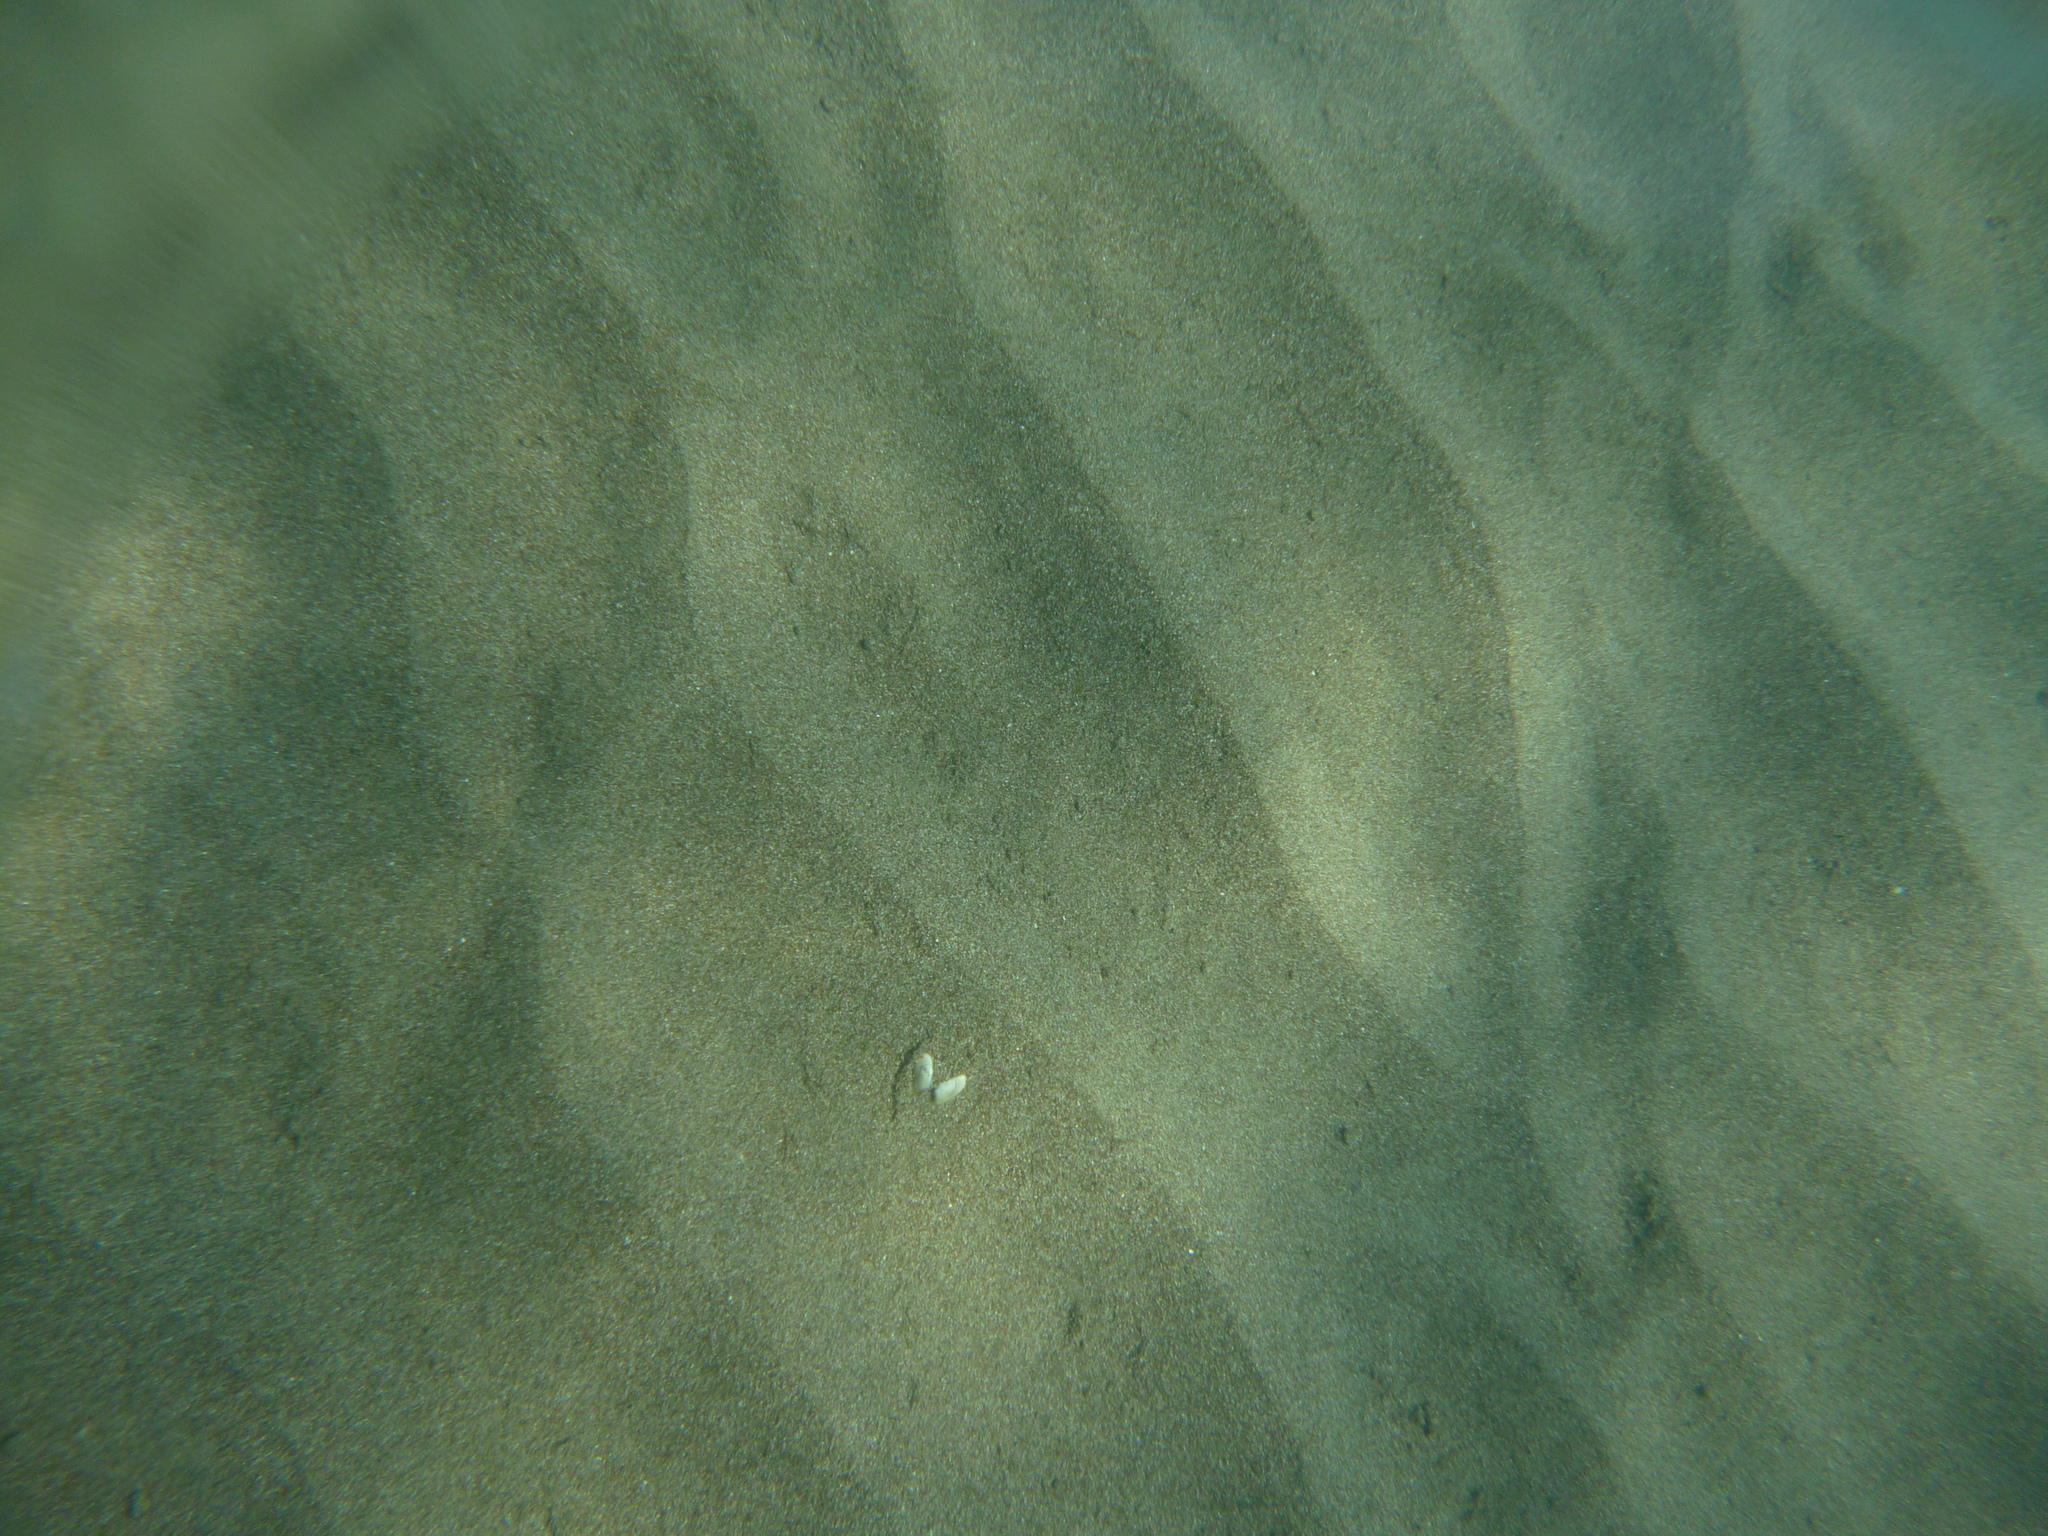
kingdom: Animalia
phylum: Mollusca
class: Bivalvia
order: Cardiida
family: Donacidae
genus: Donax
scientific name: Donax trunculus
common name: Truncate donax
